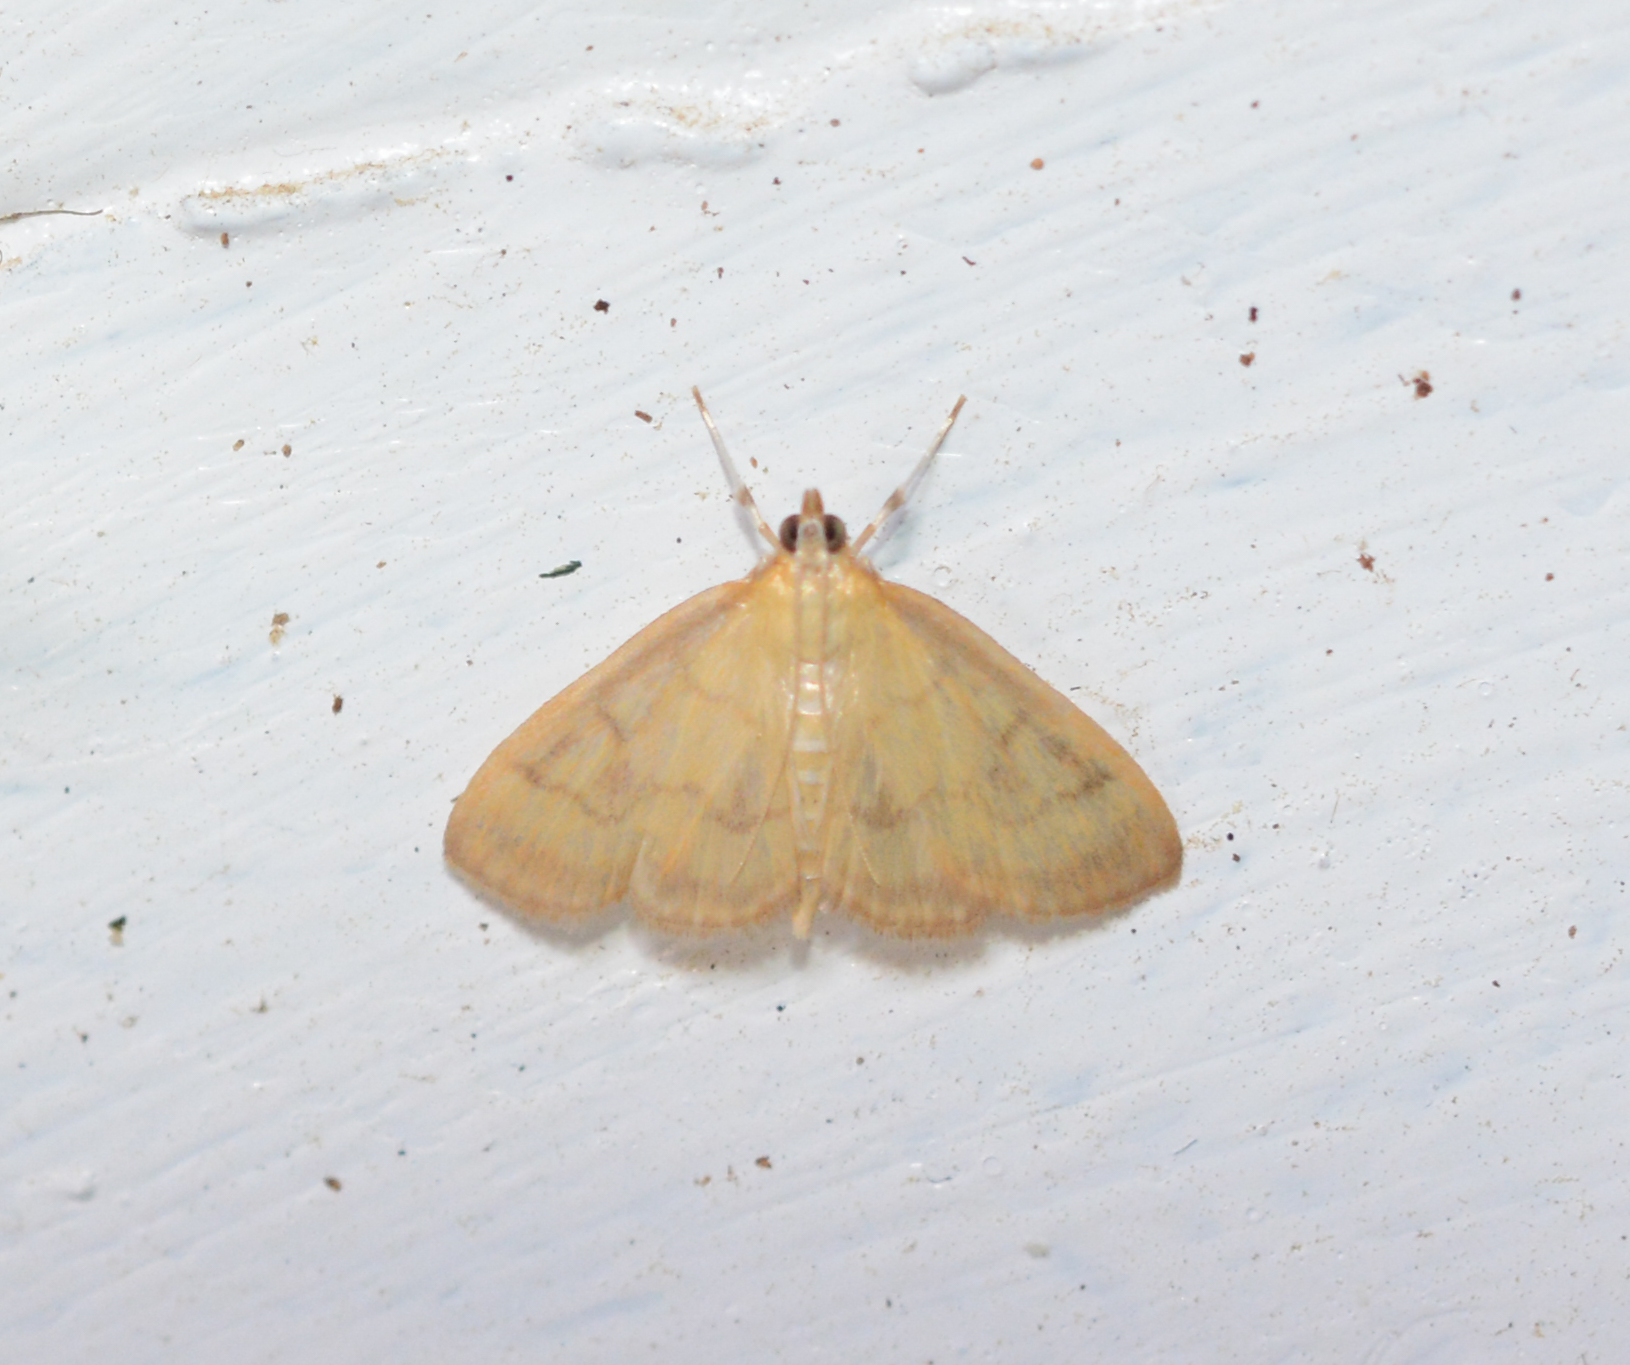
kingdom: Animalia
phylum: Arthropoda
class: Insecta
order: Lepidoptera
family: Crambidae
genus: Crocidophora
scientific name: Crocidophora tuberculalis
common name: Pale-winged crocidiphora moth
